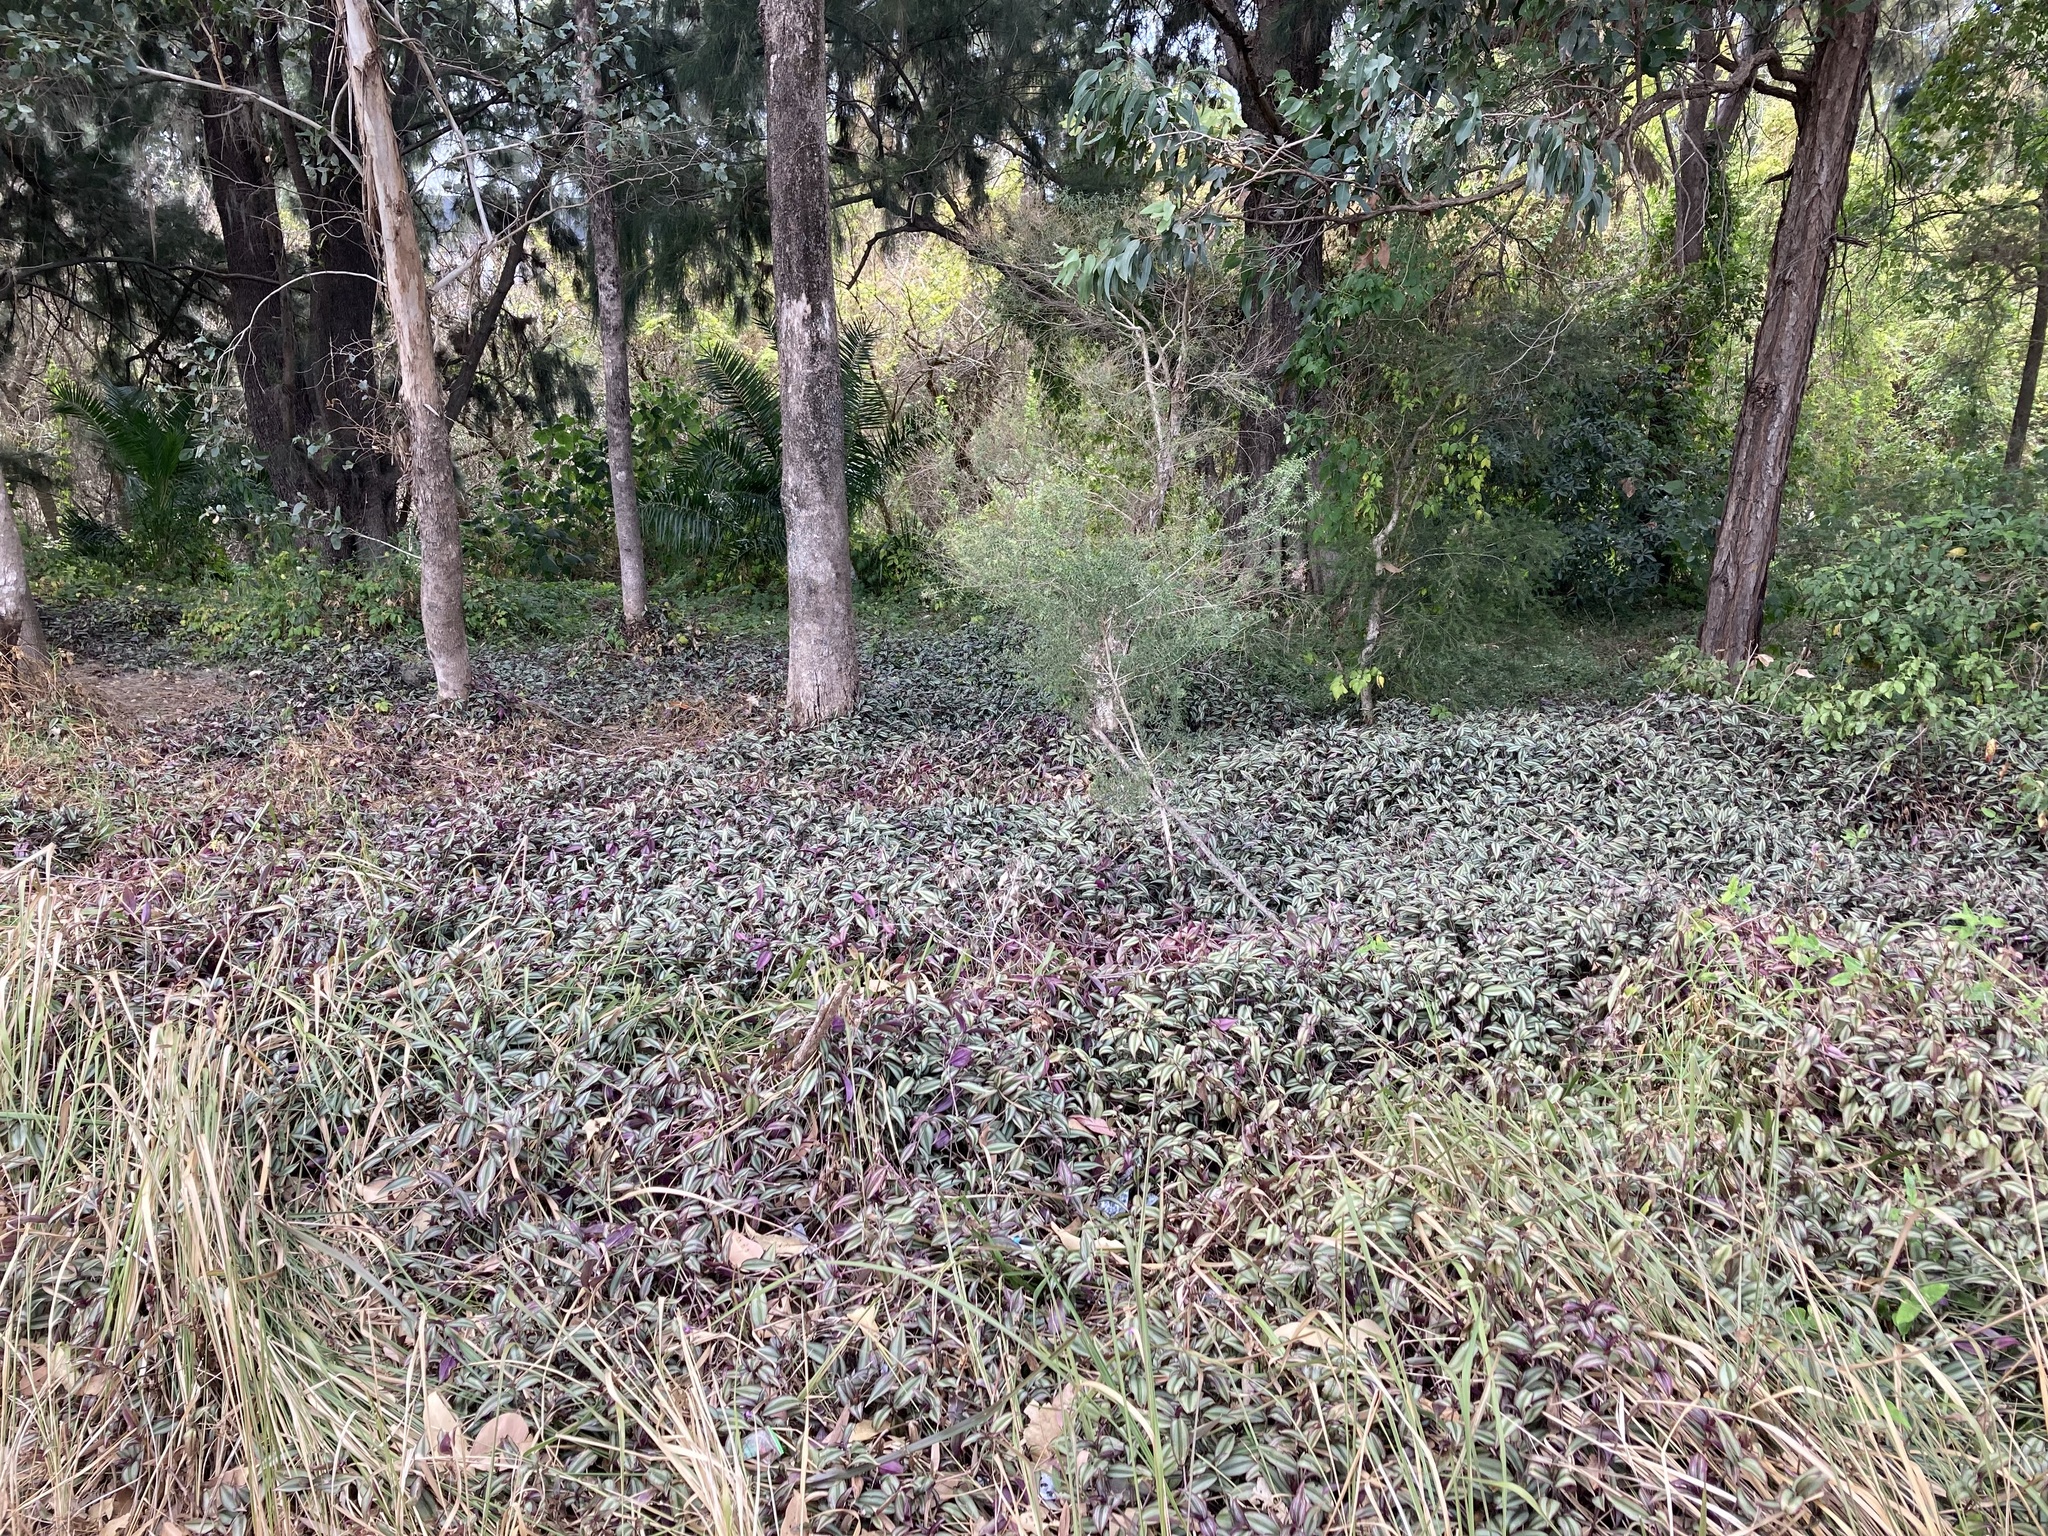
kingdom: Plantae
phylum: Tracheophyta
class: Liliopsida
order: Commelinales
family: Commelinaceae
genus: Tradescantia
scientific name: Tradescantia zebrina
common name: Inchplant
